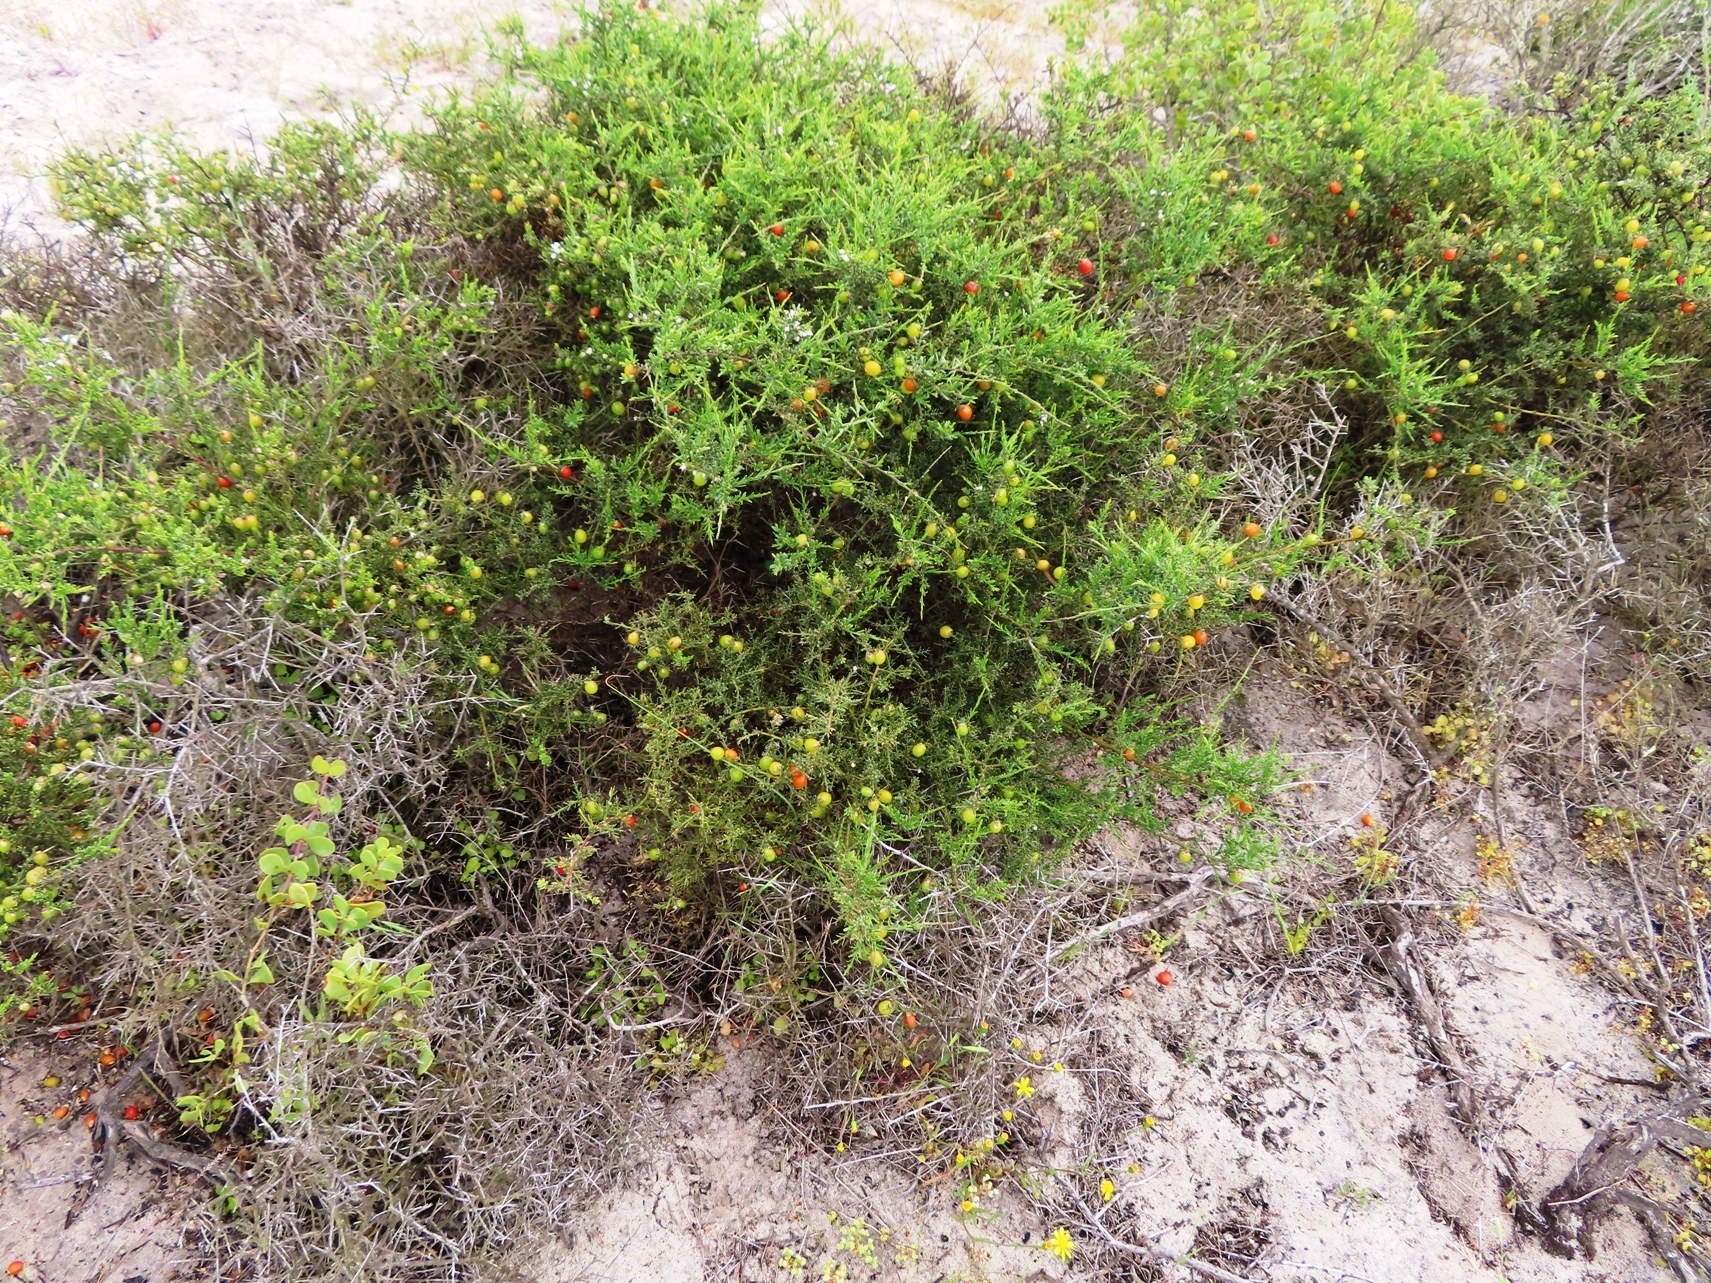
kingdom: Plantae
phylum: Tracheophyta
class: Magnoliopsida
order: Fabales
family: Polygalaceae
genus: Muraltia
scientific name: Muraltia spinosa
